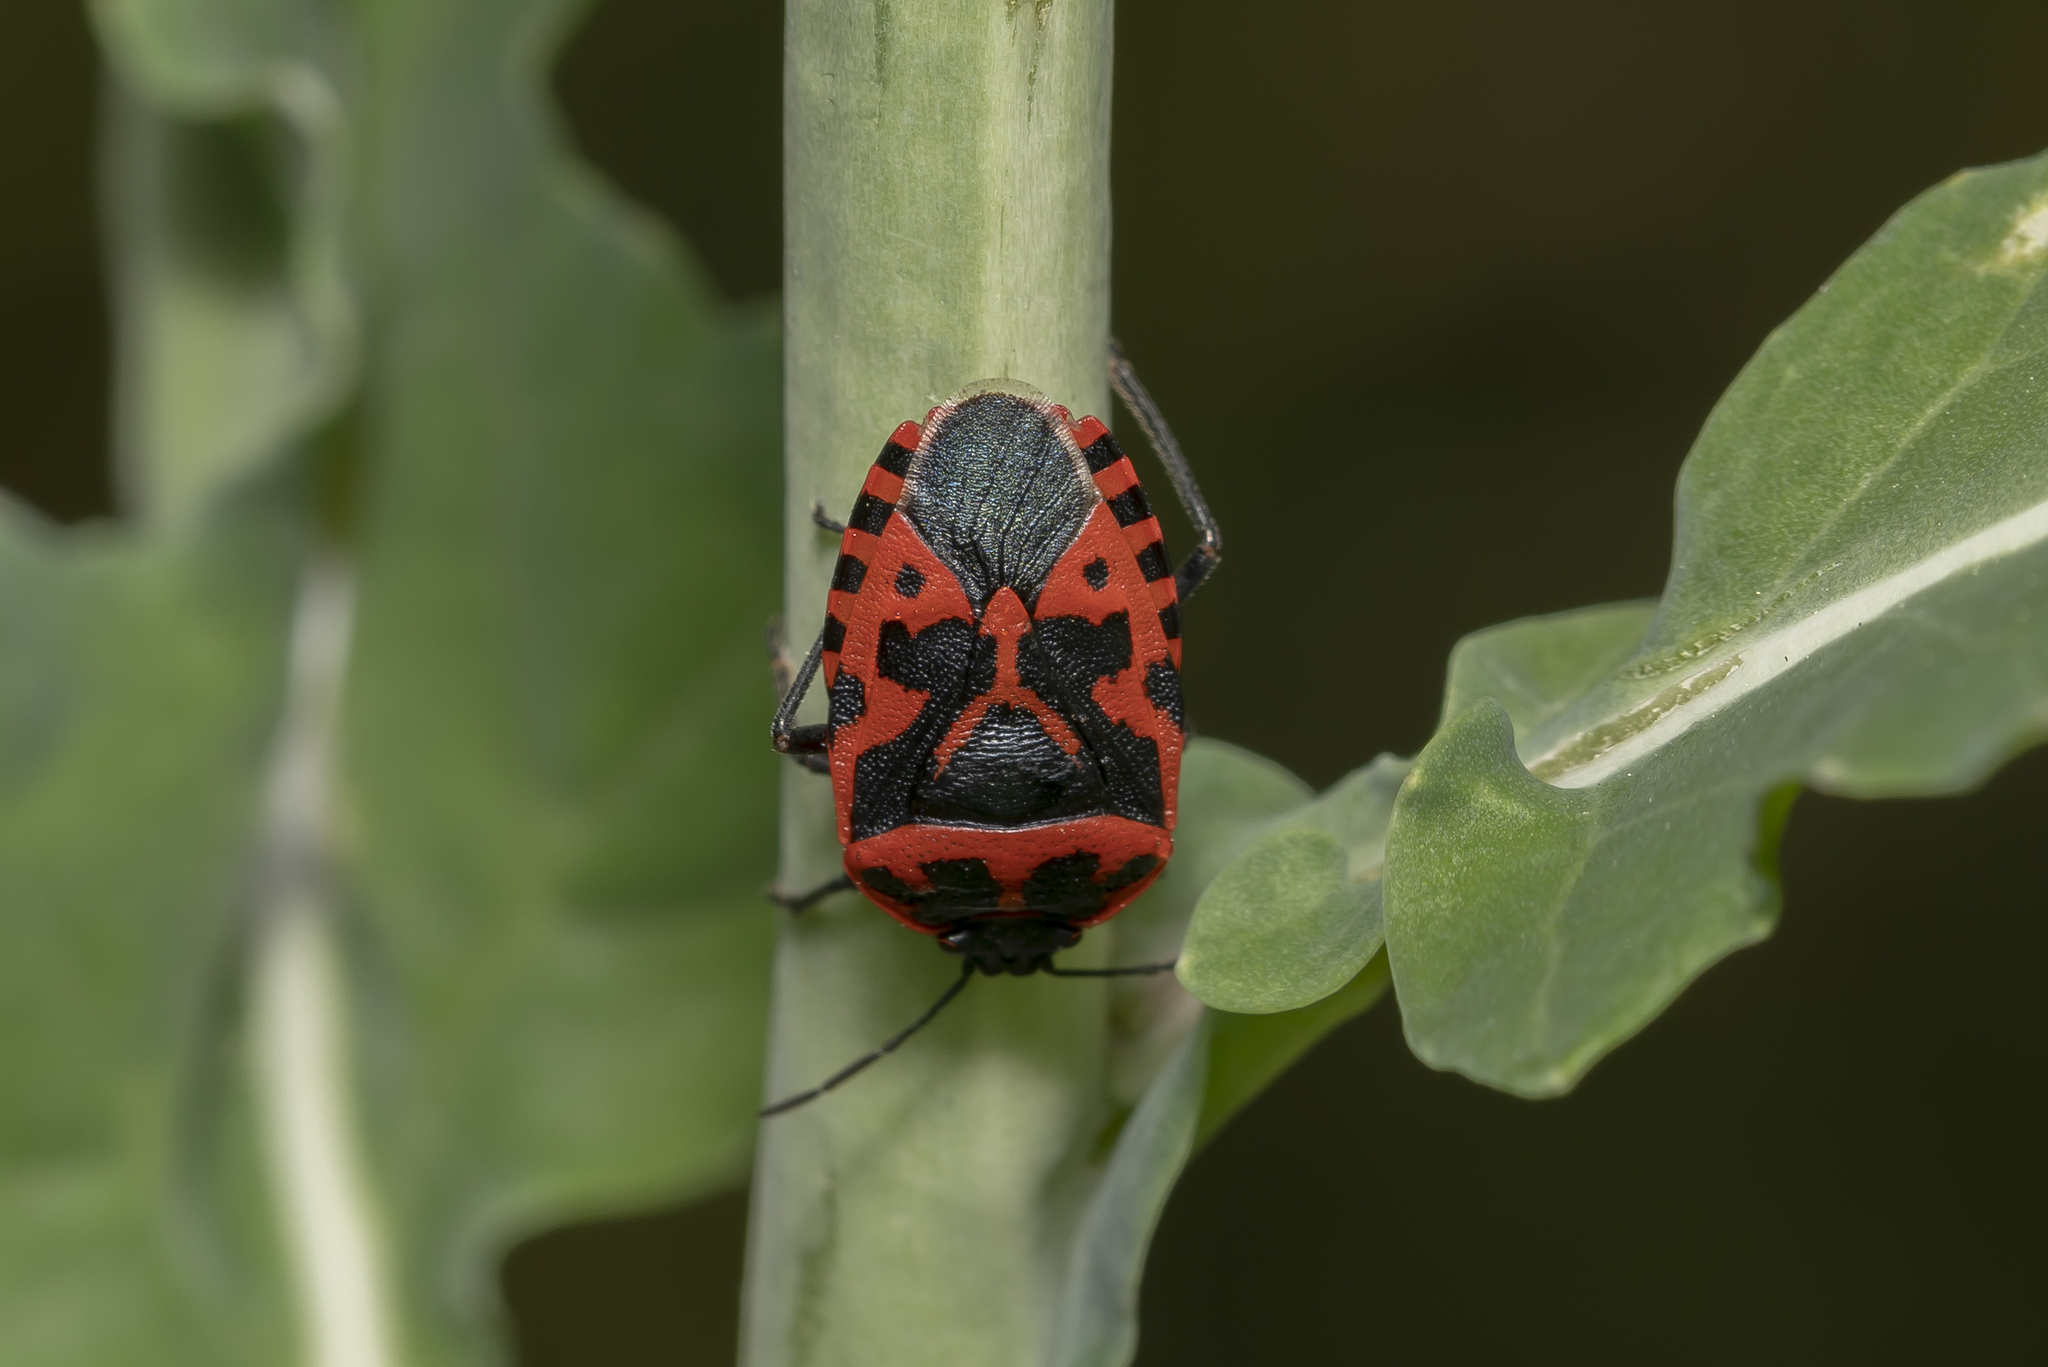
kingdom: Animalia
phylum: Arthropoda
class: Insecta
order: Hemiptera
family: Pentatomidae
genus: Eurydema
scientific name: Eurydema ventralis
